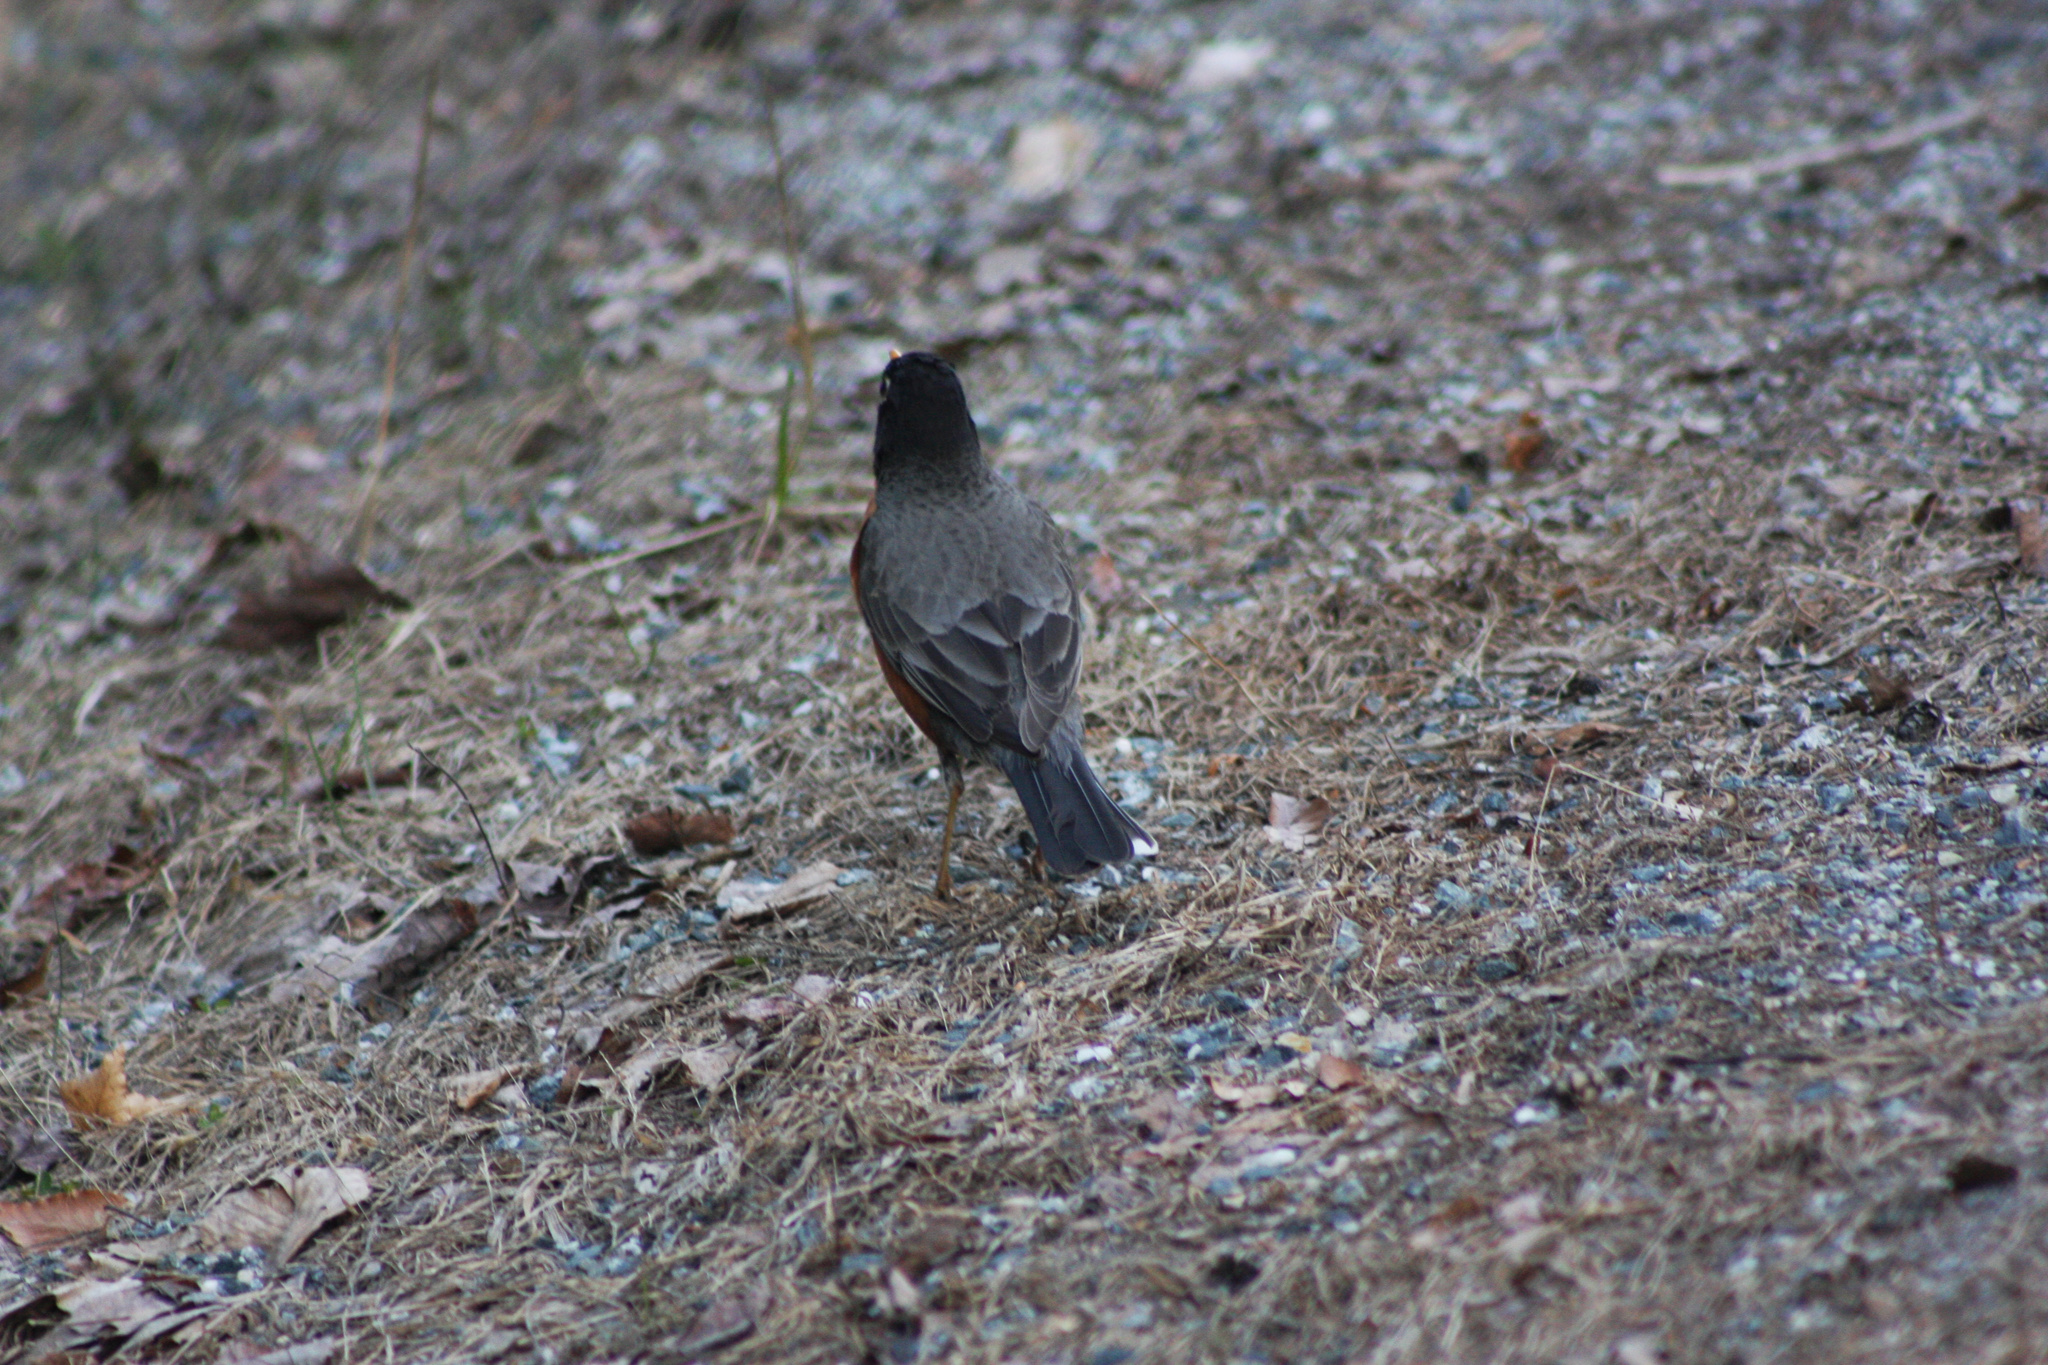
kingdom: Animalia
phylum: Chordata
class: Aves
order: Passeriformes
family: Turdidae
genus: Turdus
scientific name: Turdus migratorius
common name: American robin
